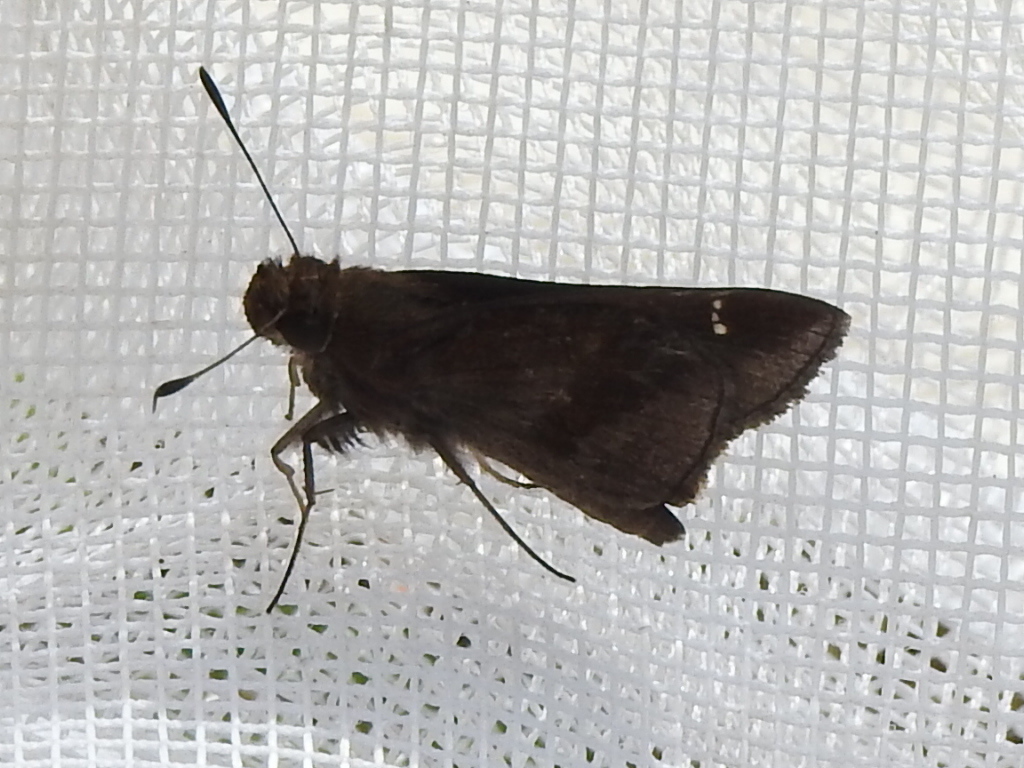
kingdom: Animalia
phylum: Arthropoda
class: Insecta
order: Lepidoptera
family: Hesperiidae
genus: Lerema
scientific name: Lerema accius
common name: Clouded skipper
